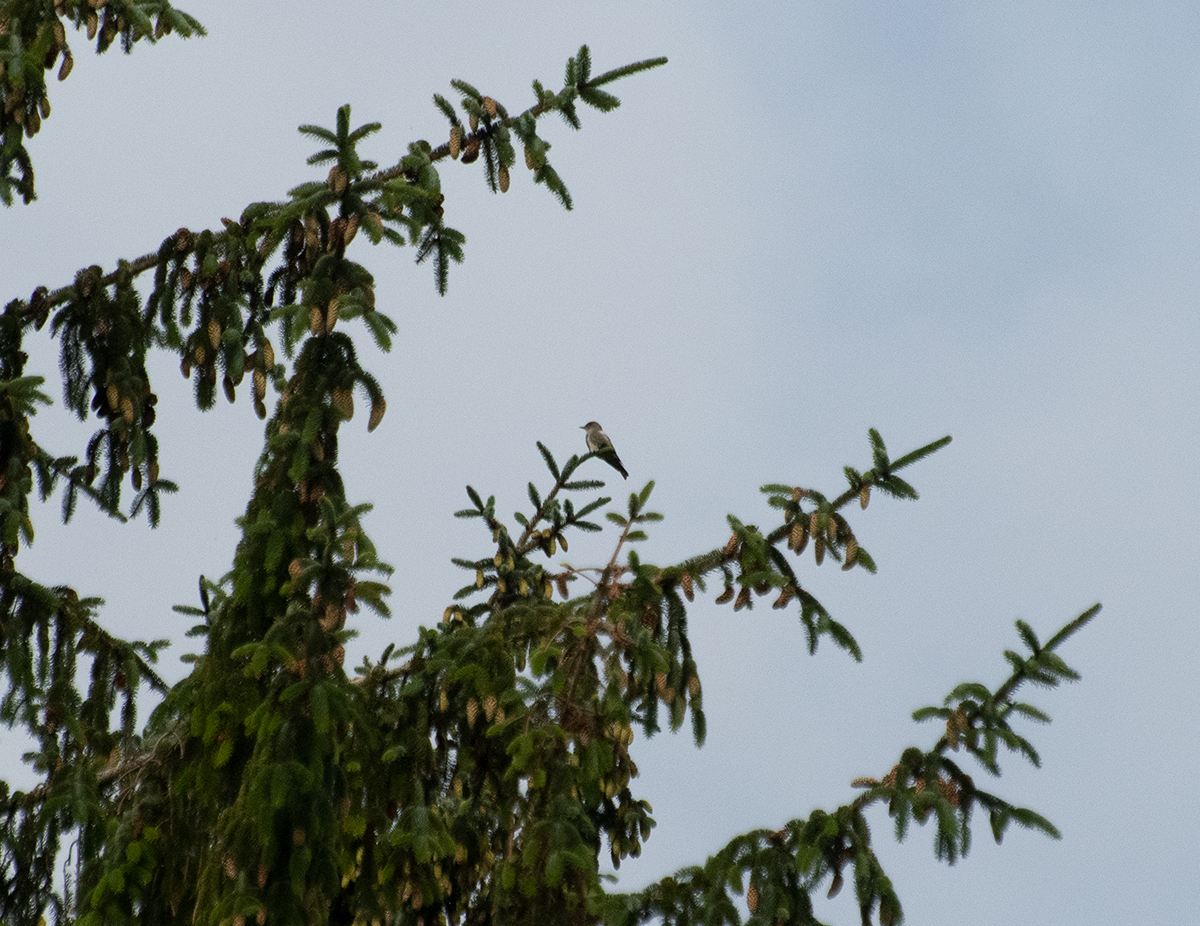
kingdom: Animalia
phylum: Chordata
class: Aves
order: Passeriformes
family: Tyrannidae
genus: Contopus
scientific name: Contopus cooperi
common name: Olive-sided flycatcher
